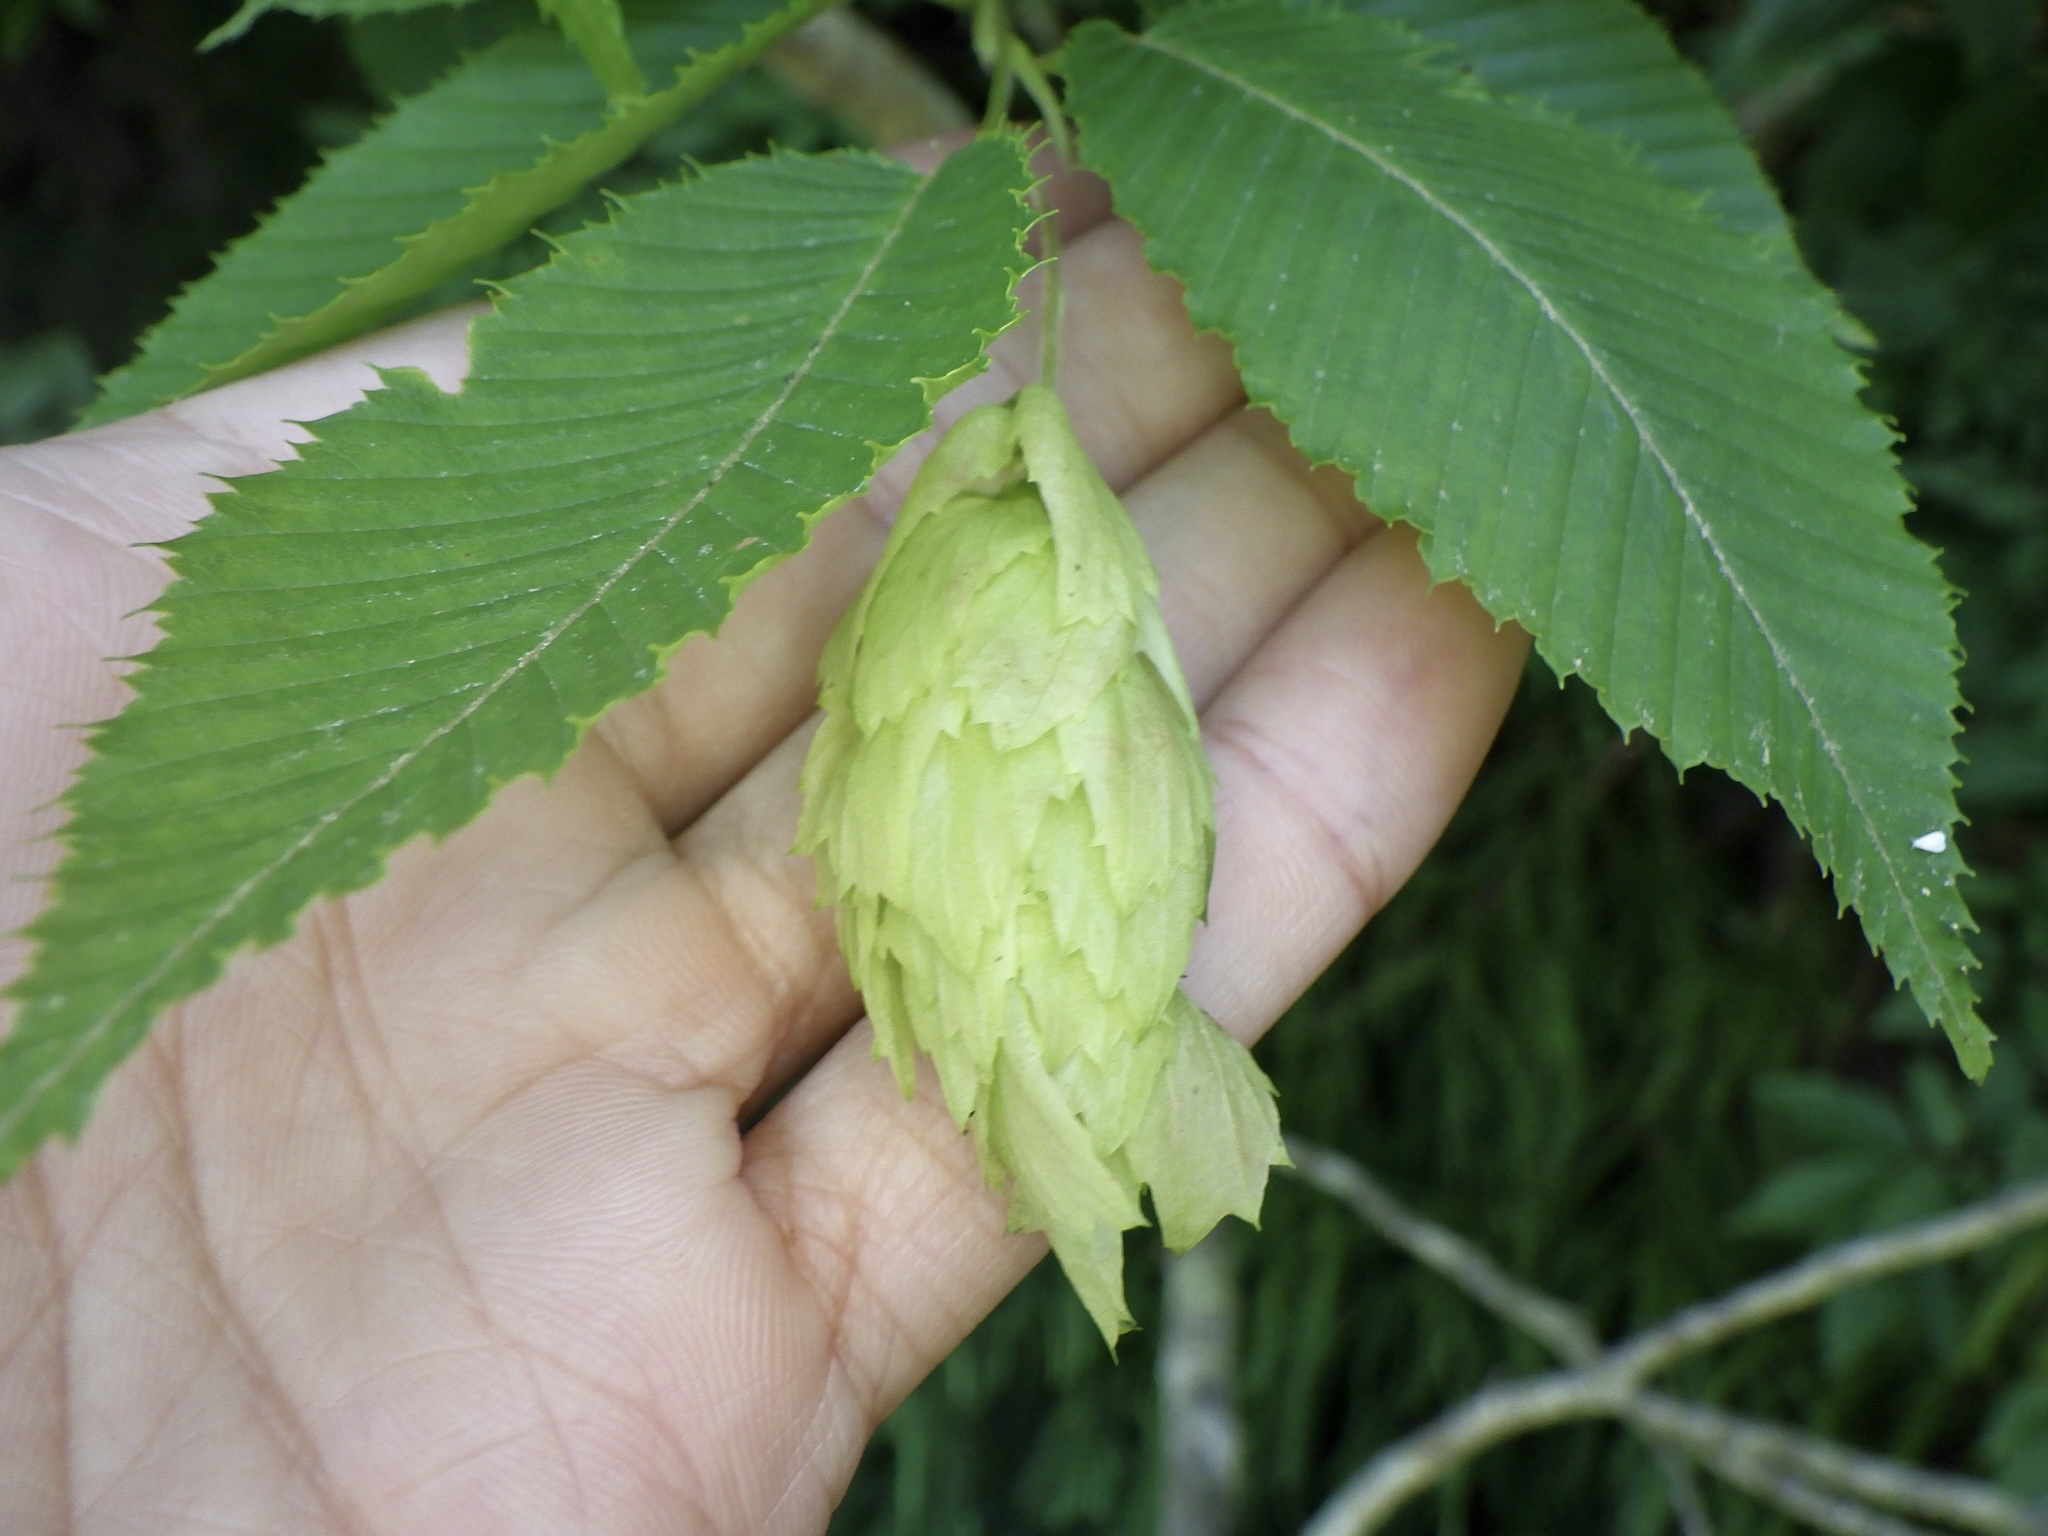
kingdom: Plantae
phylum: Tracheophyta
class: Magnoliopsida
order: Fagales
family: Betulaceae
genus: Carpinus
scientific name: Carpinus japonica
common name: Japanese hornbeam
